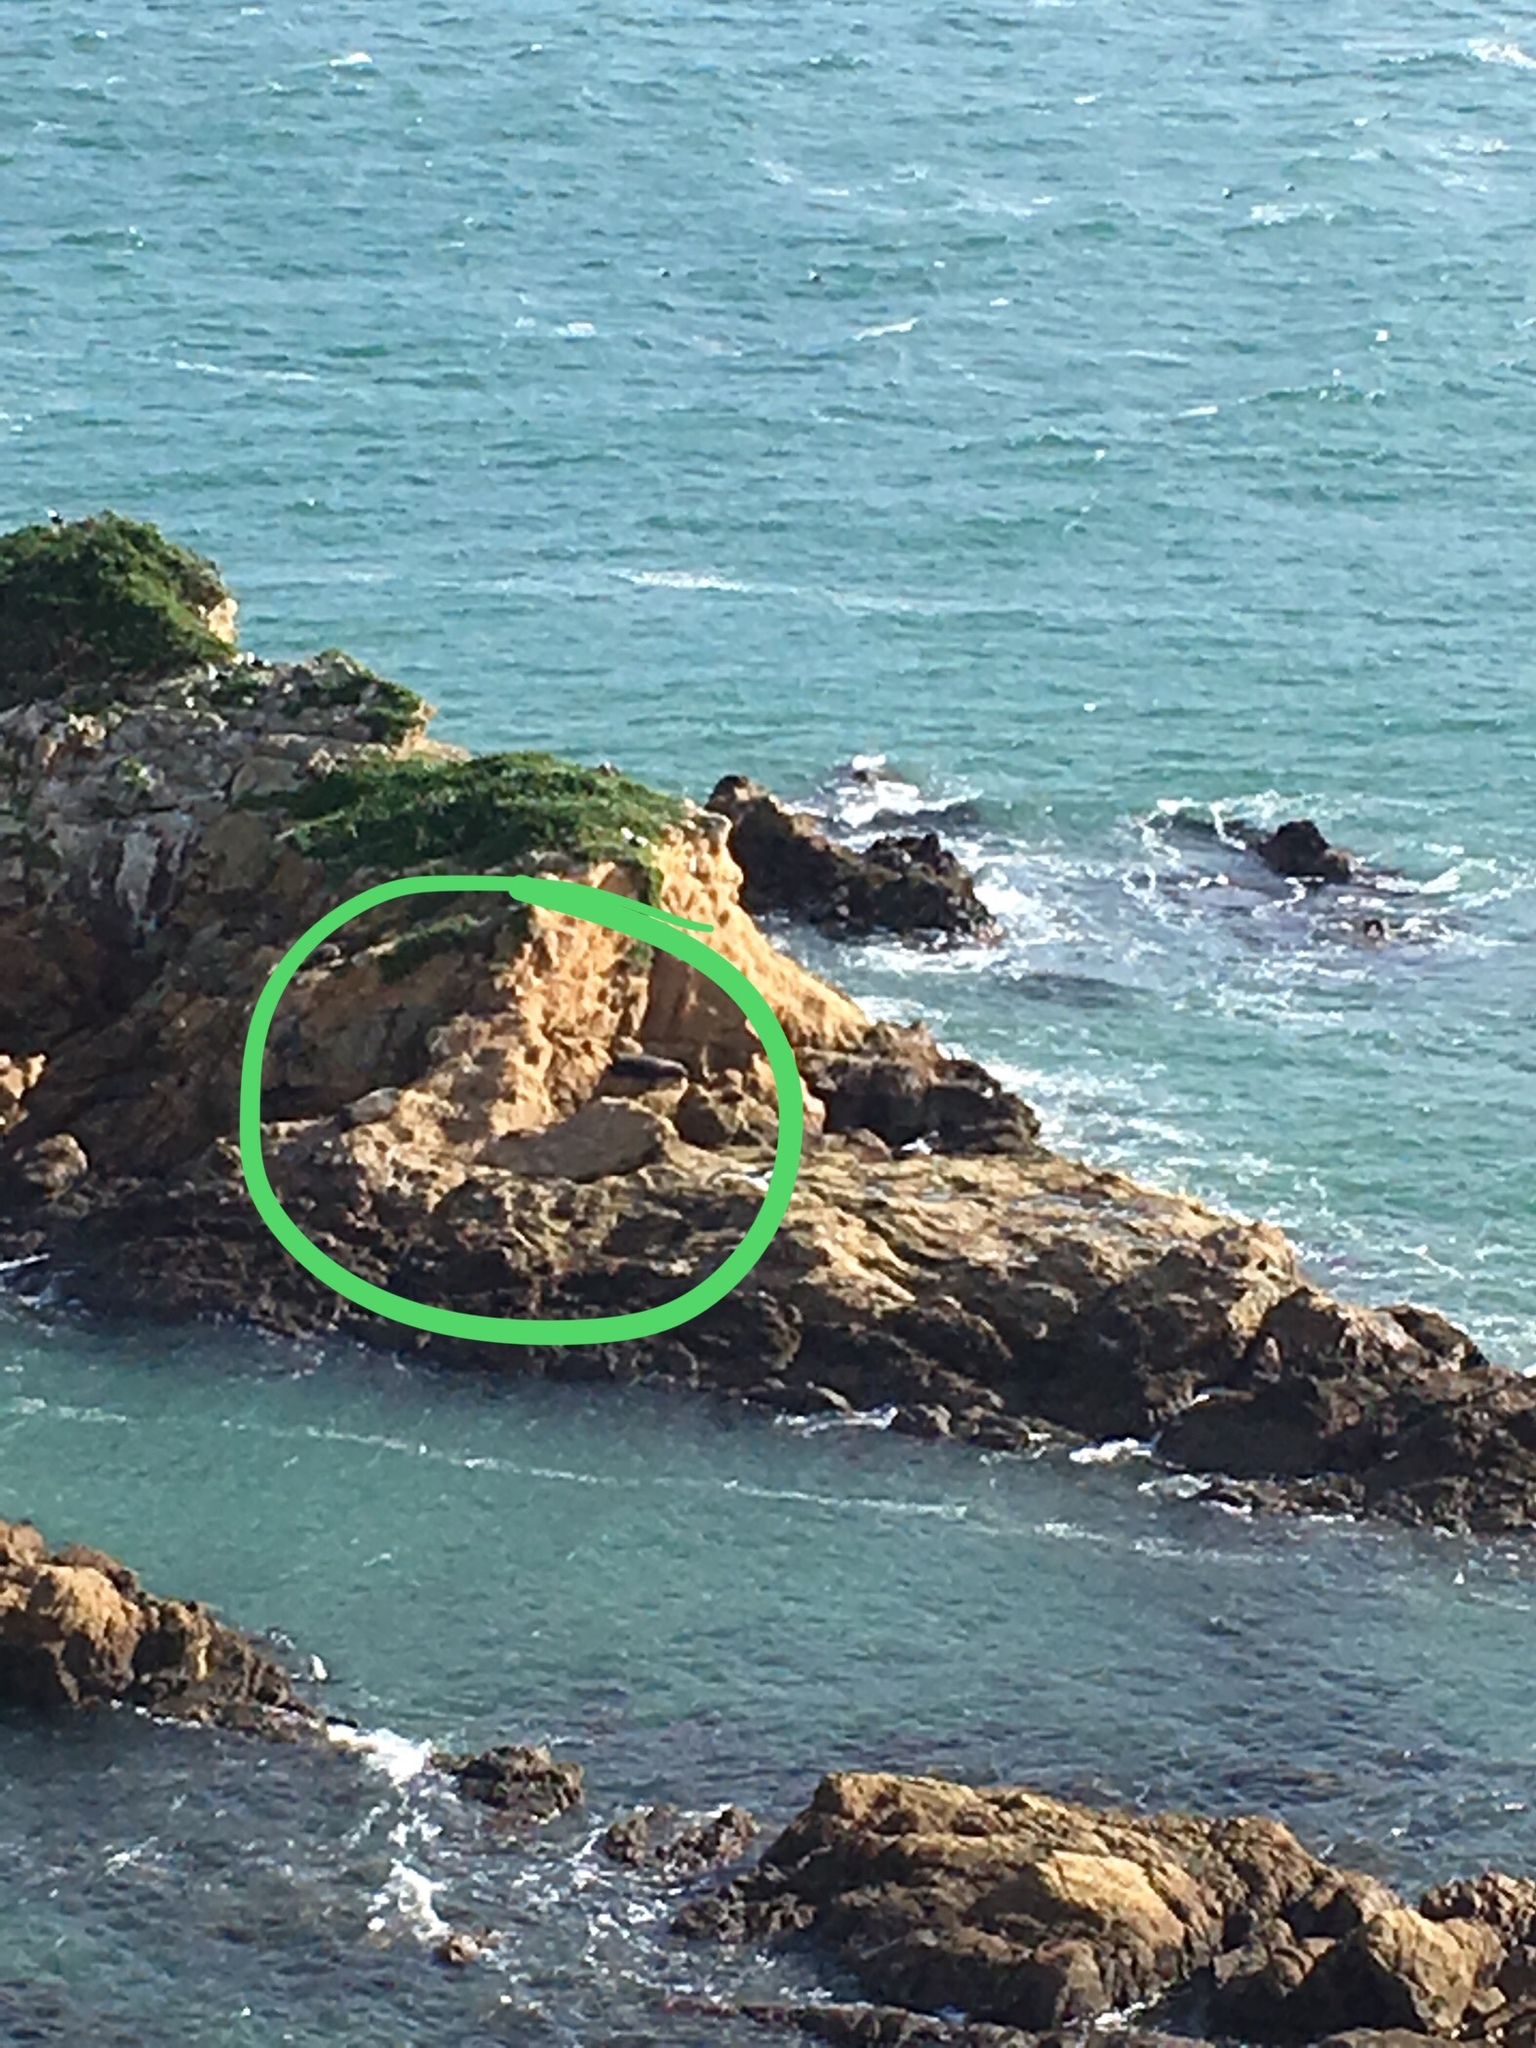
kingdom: Animalia
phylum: Chordata
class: Mammalia
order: Carnivora
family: Otariidae
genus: Arctocephalus
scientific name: Arctocephalus forsteri
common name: New zealand fur seal
